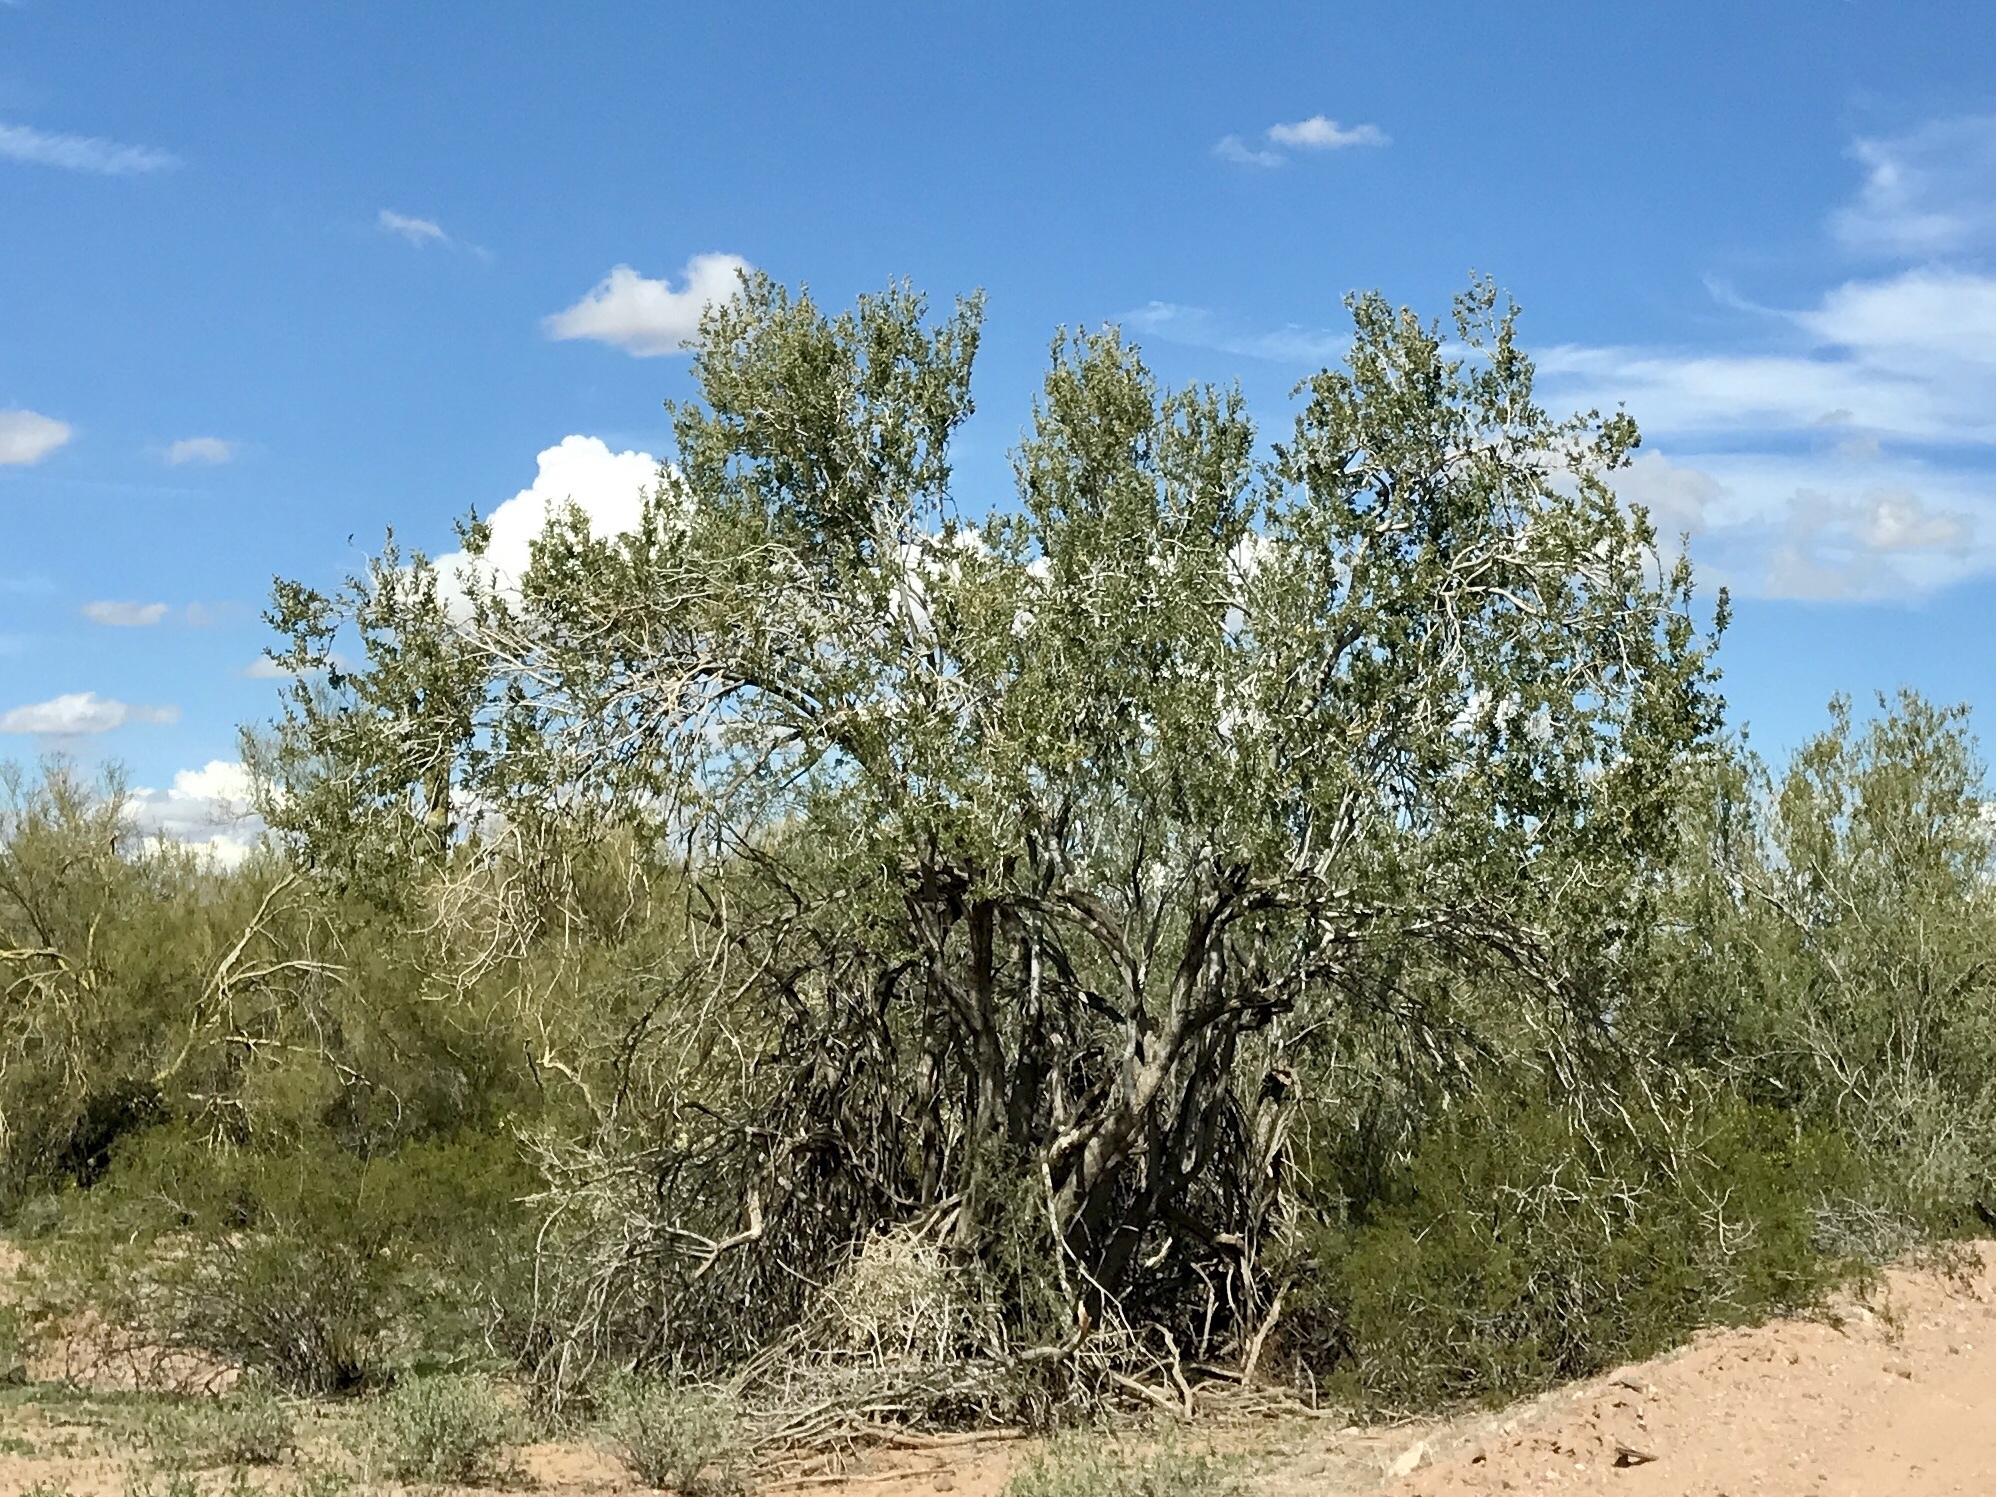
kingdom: Plantae
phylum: Tracheophyta
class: Magnoliopsida
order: Fabales
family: Fabaceae
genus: Olneya
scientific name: Olneya tesota
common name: Desert ironwood
